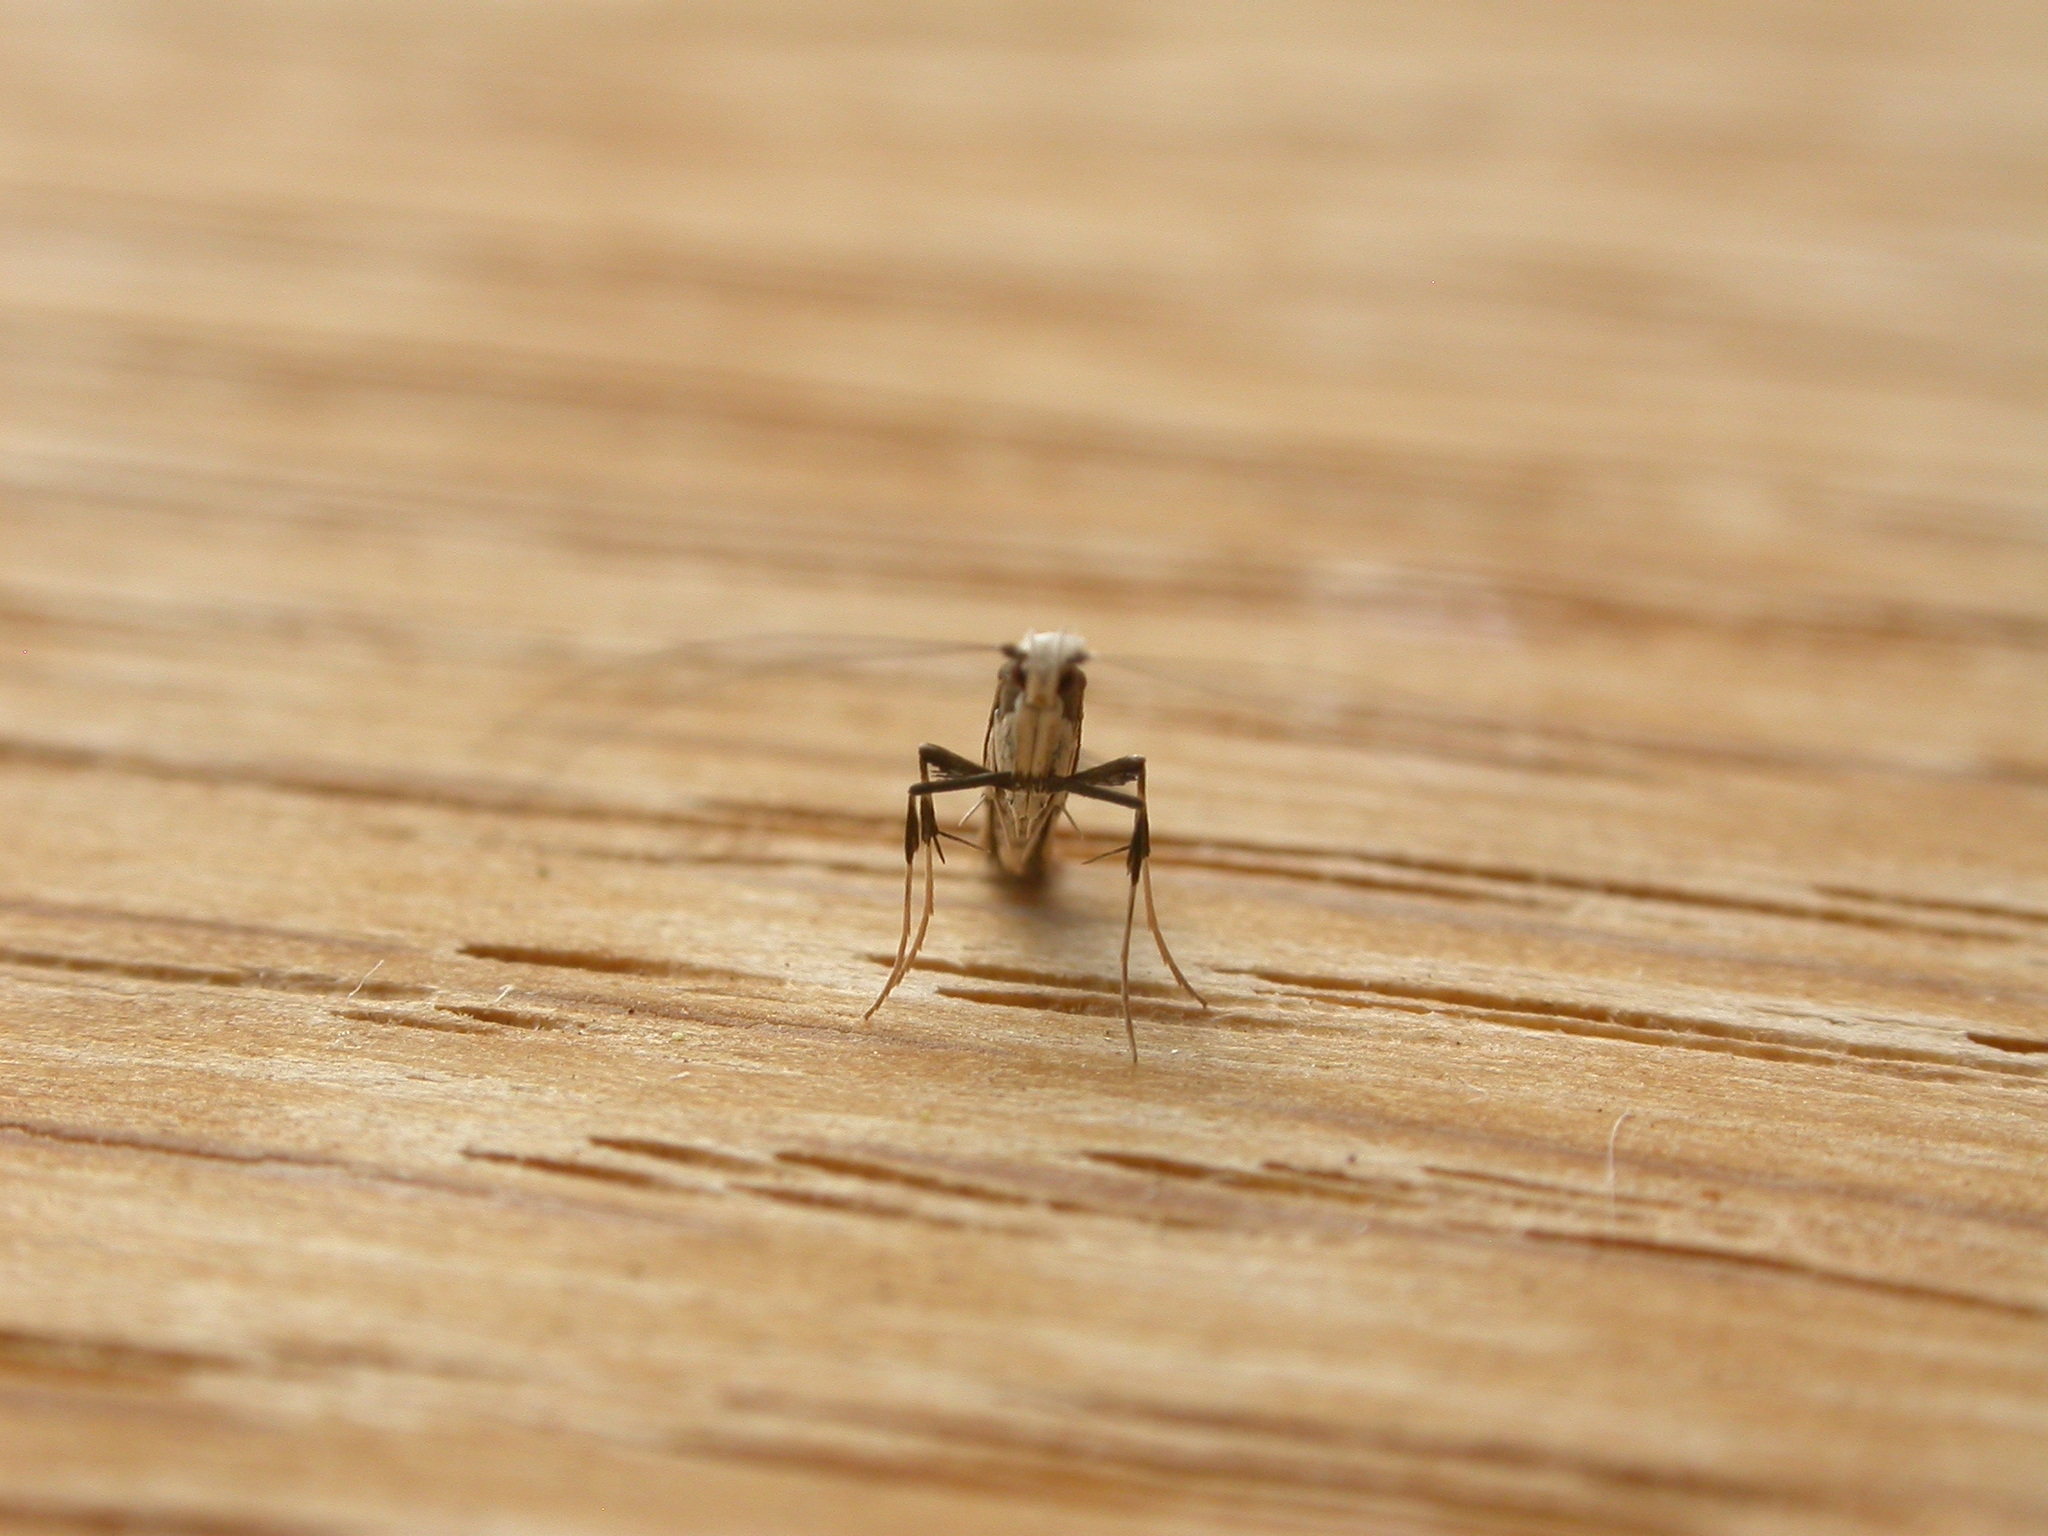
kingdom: Animalia
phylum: Arthropoda
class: Insecta
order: Lepidoptera
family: Gracillariidae
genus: Dialectica
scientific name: Dialectica scalariella
